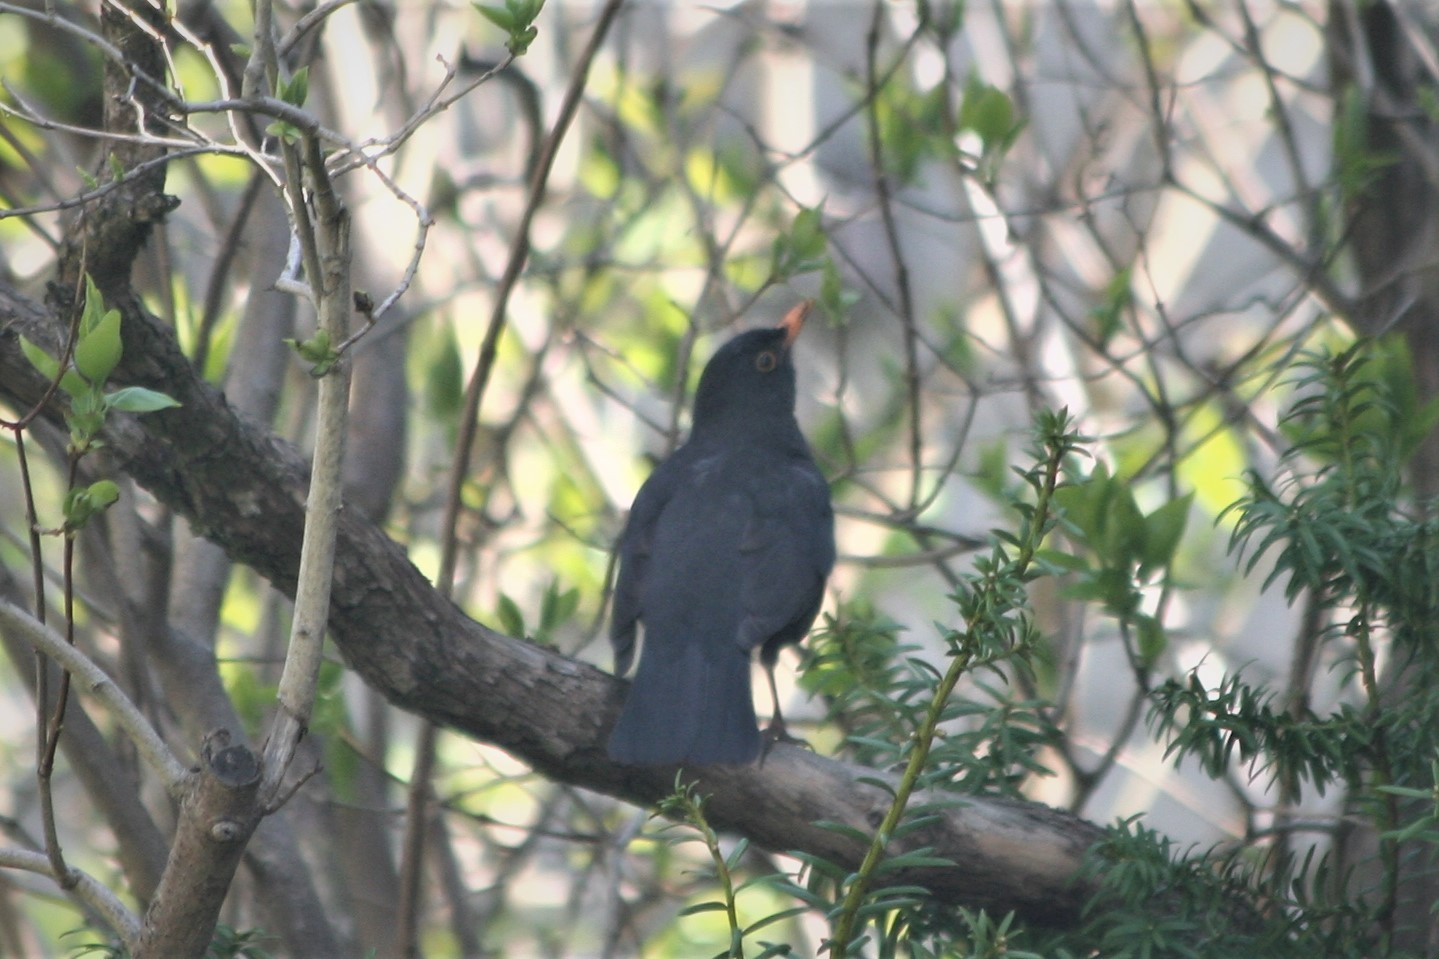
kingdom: Animalia
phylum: Chordata
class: Aves
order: Passeriformes
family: Turdidae
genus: Turdus
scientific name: Turdus merula
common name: Common blackbird
